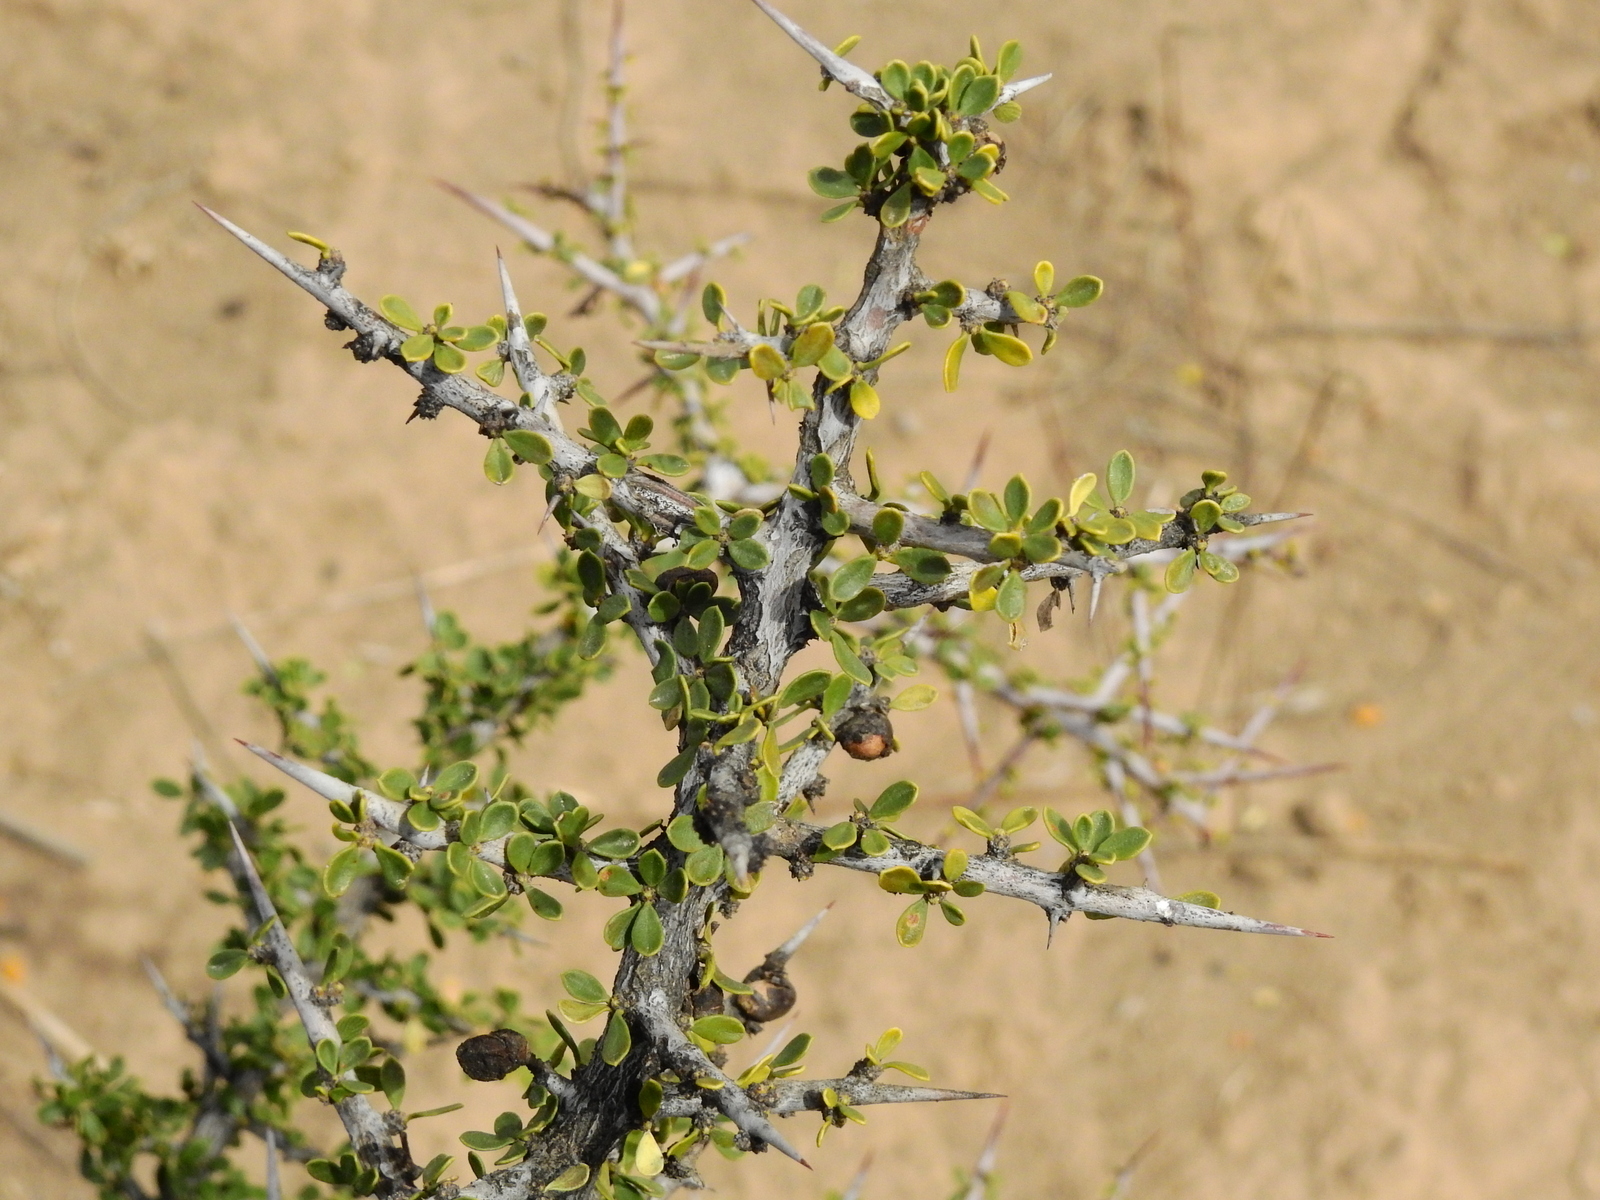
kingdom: Plantae
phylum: Tracheophyta
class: Magnoliopsida
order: Rosales
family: Rhamnaceae
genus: Condalia
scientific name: Condalia microphylla
